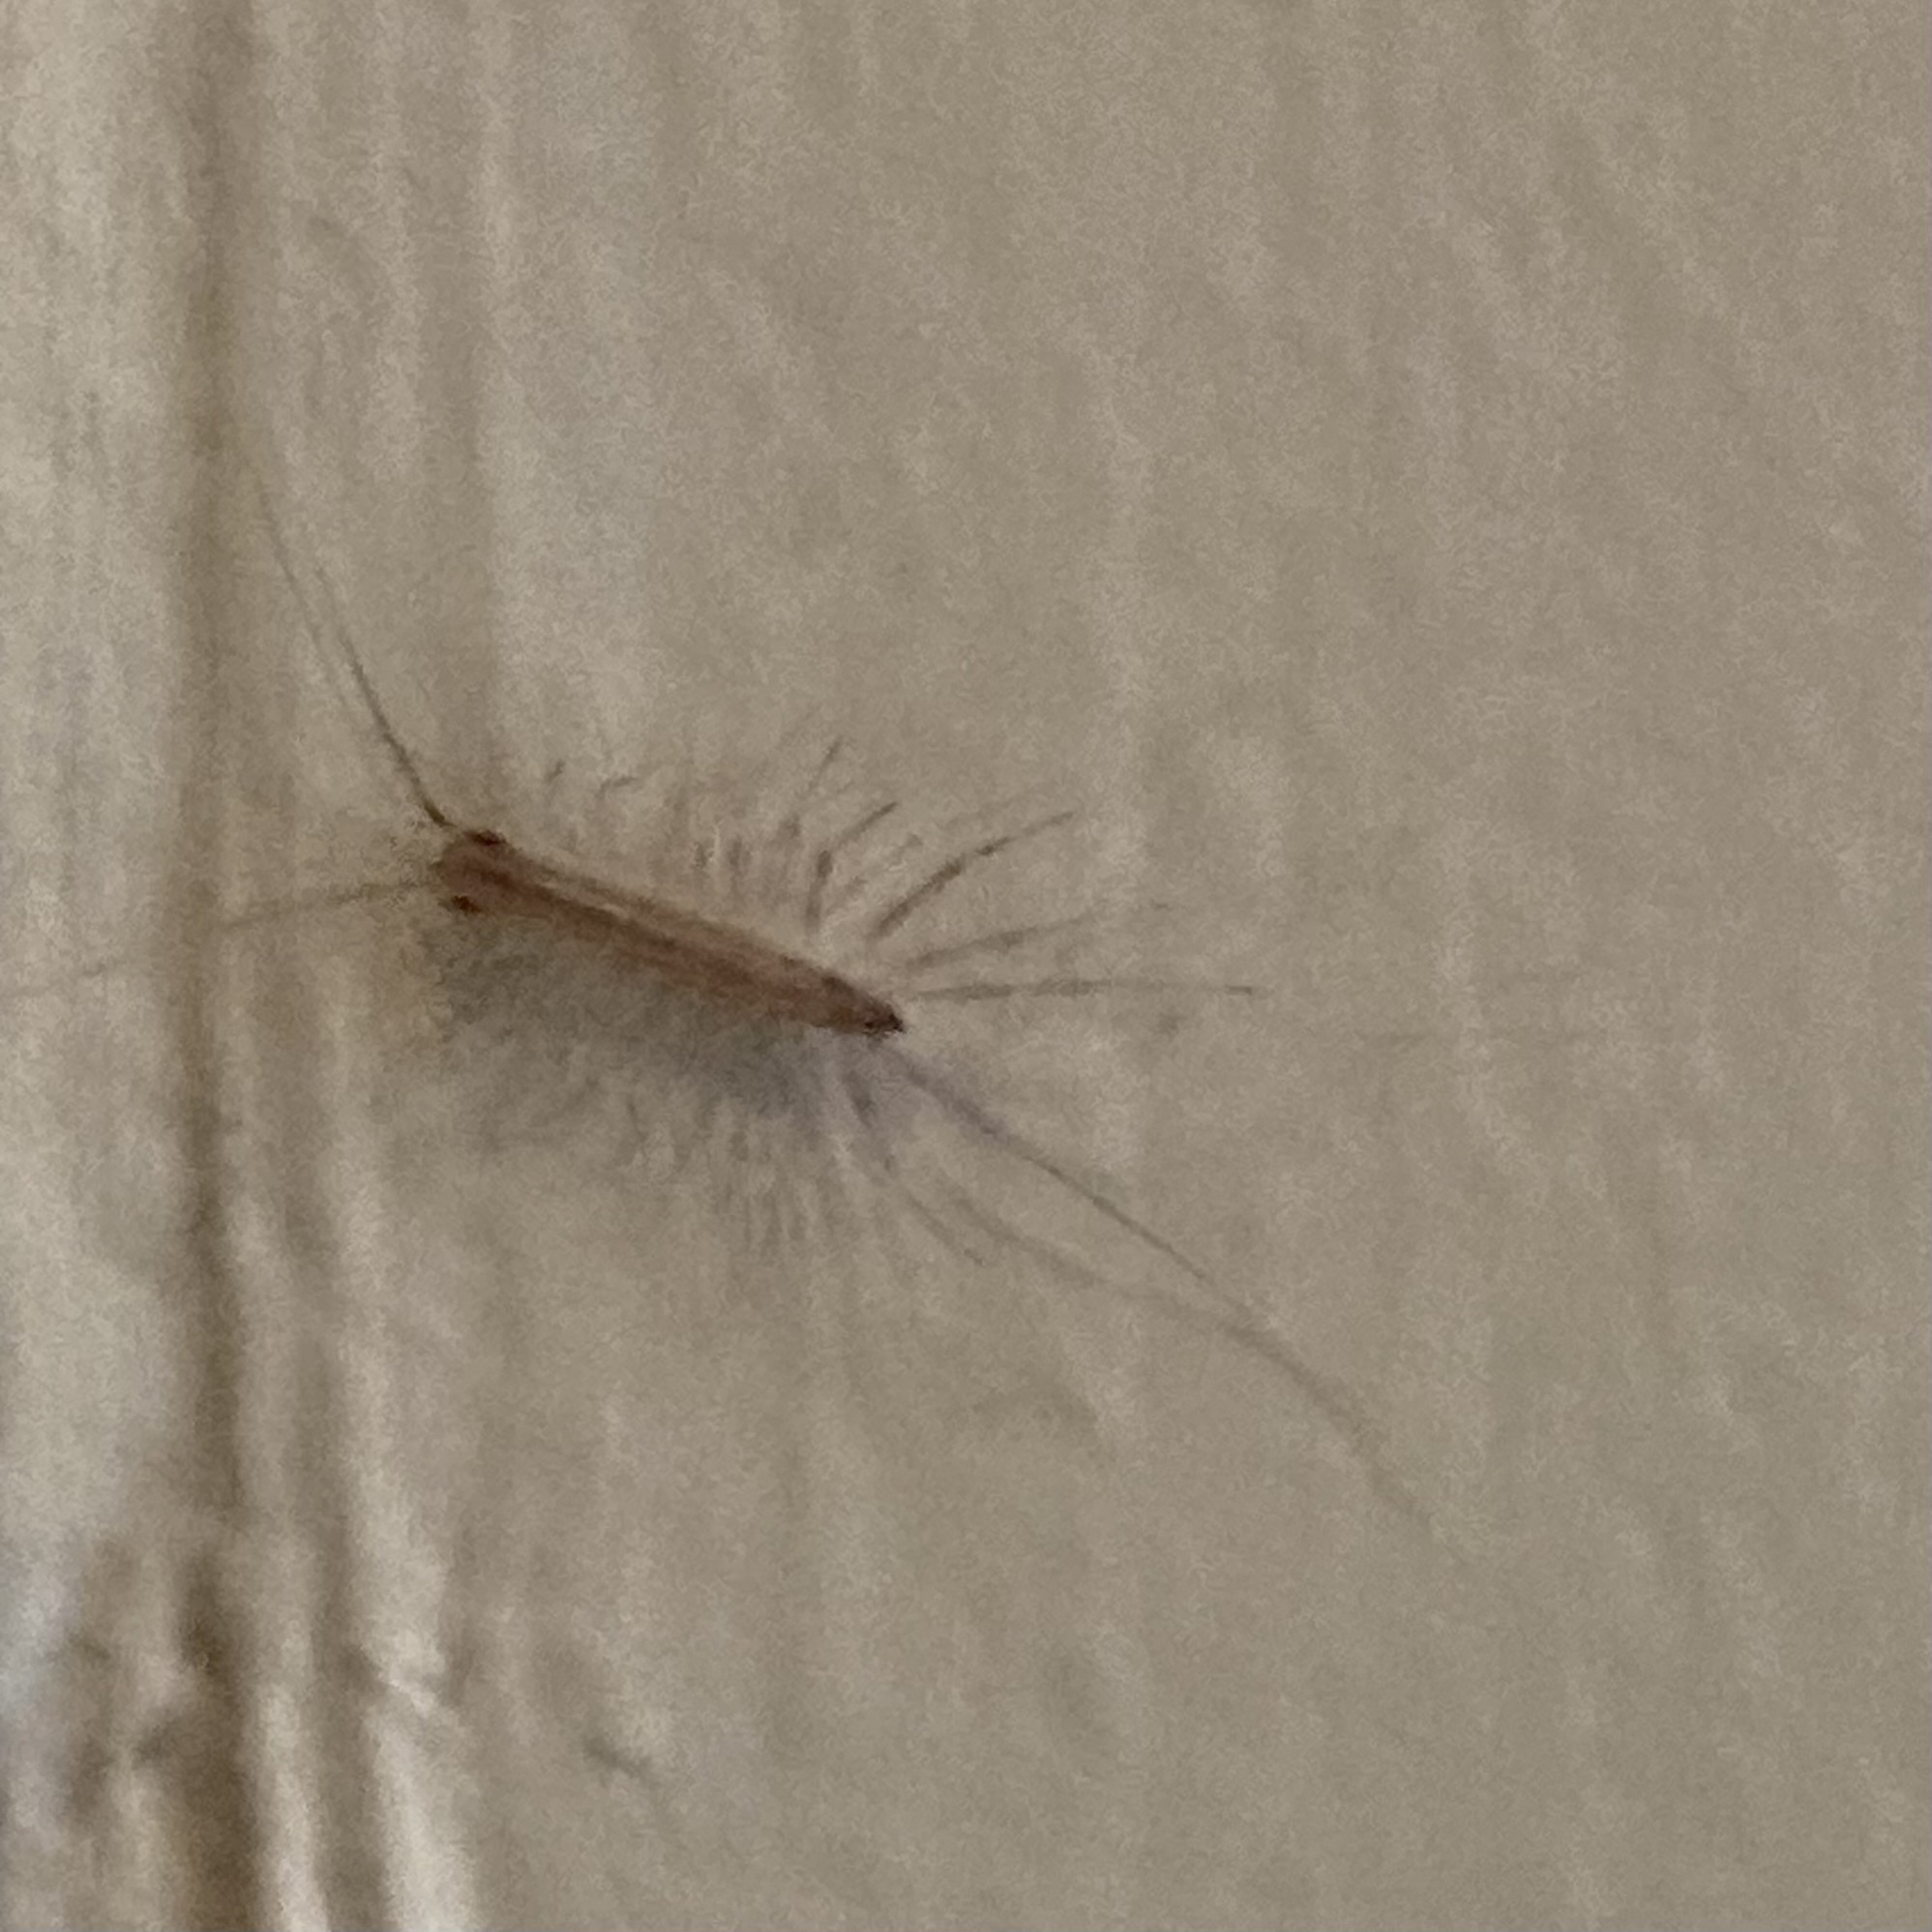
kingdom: Animalia
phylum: Arthropoda
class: Chilopoda
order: Scutigeromorpha
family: Scutigeridae
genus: Scutigera
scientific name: Scutigera coleoptrata
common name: House centipede
